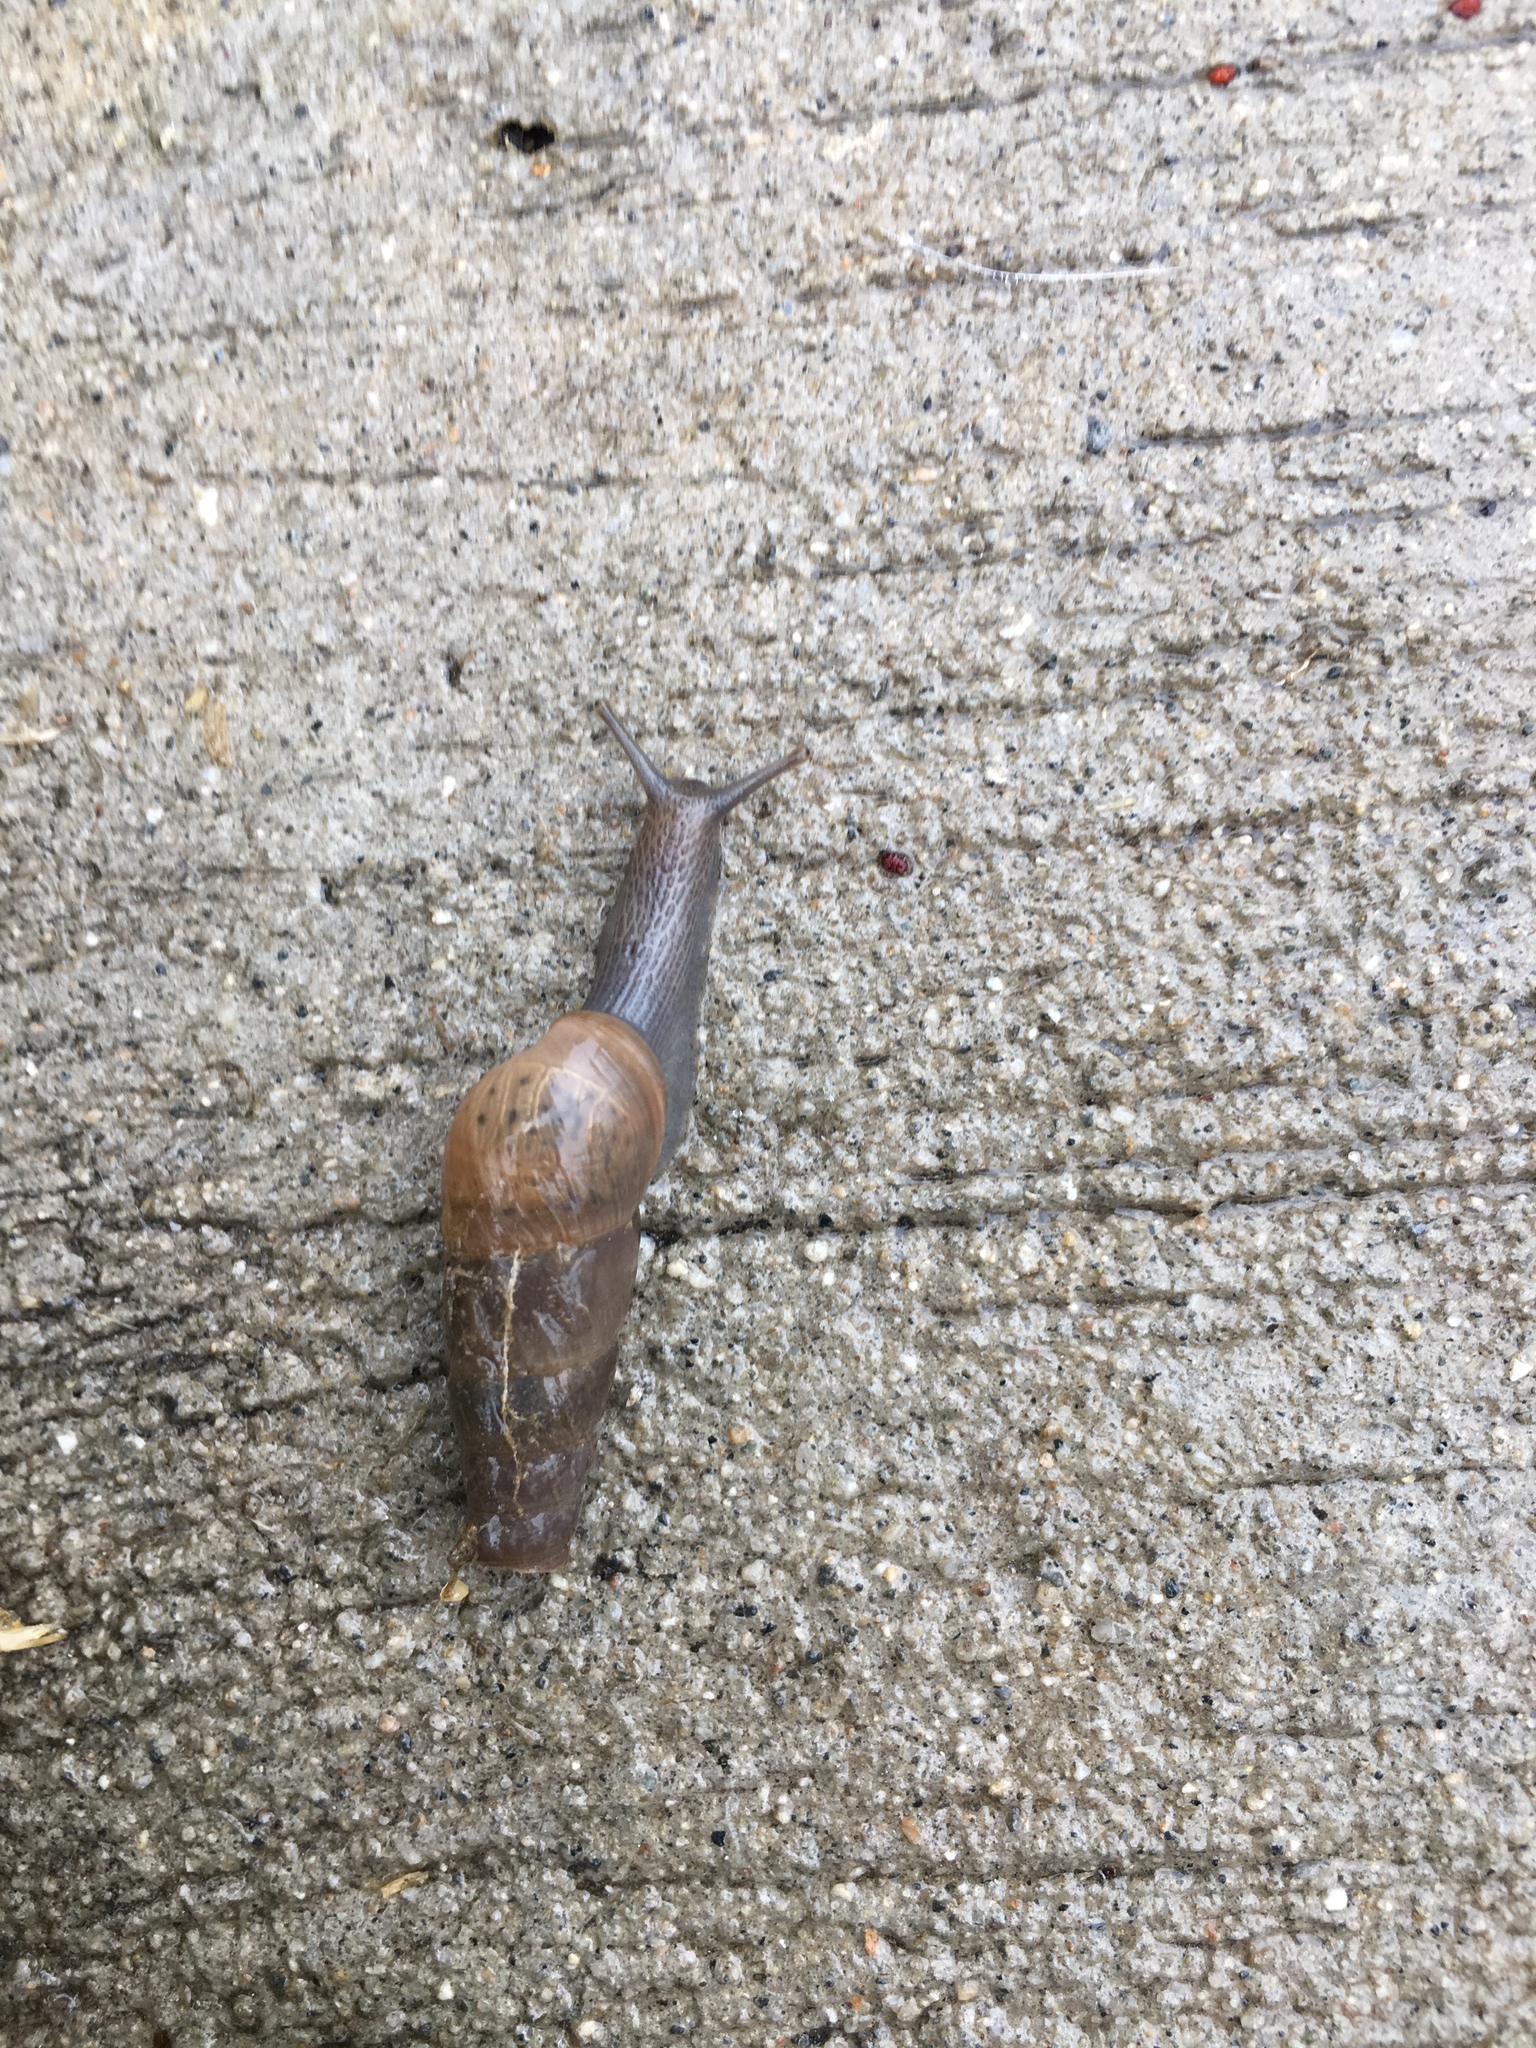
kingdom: Animalia
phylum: Mollusca
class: Gastropoda
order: Stylommatophora
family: Achatinidae
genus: Rumina
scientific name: Rumina decollata
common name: Decollate snail
